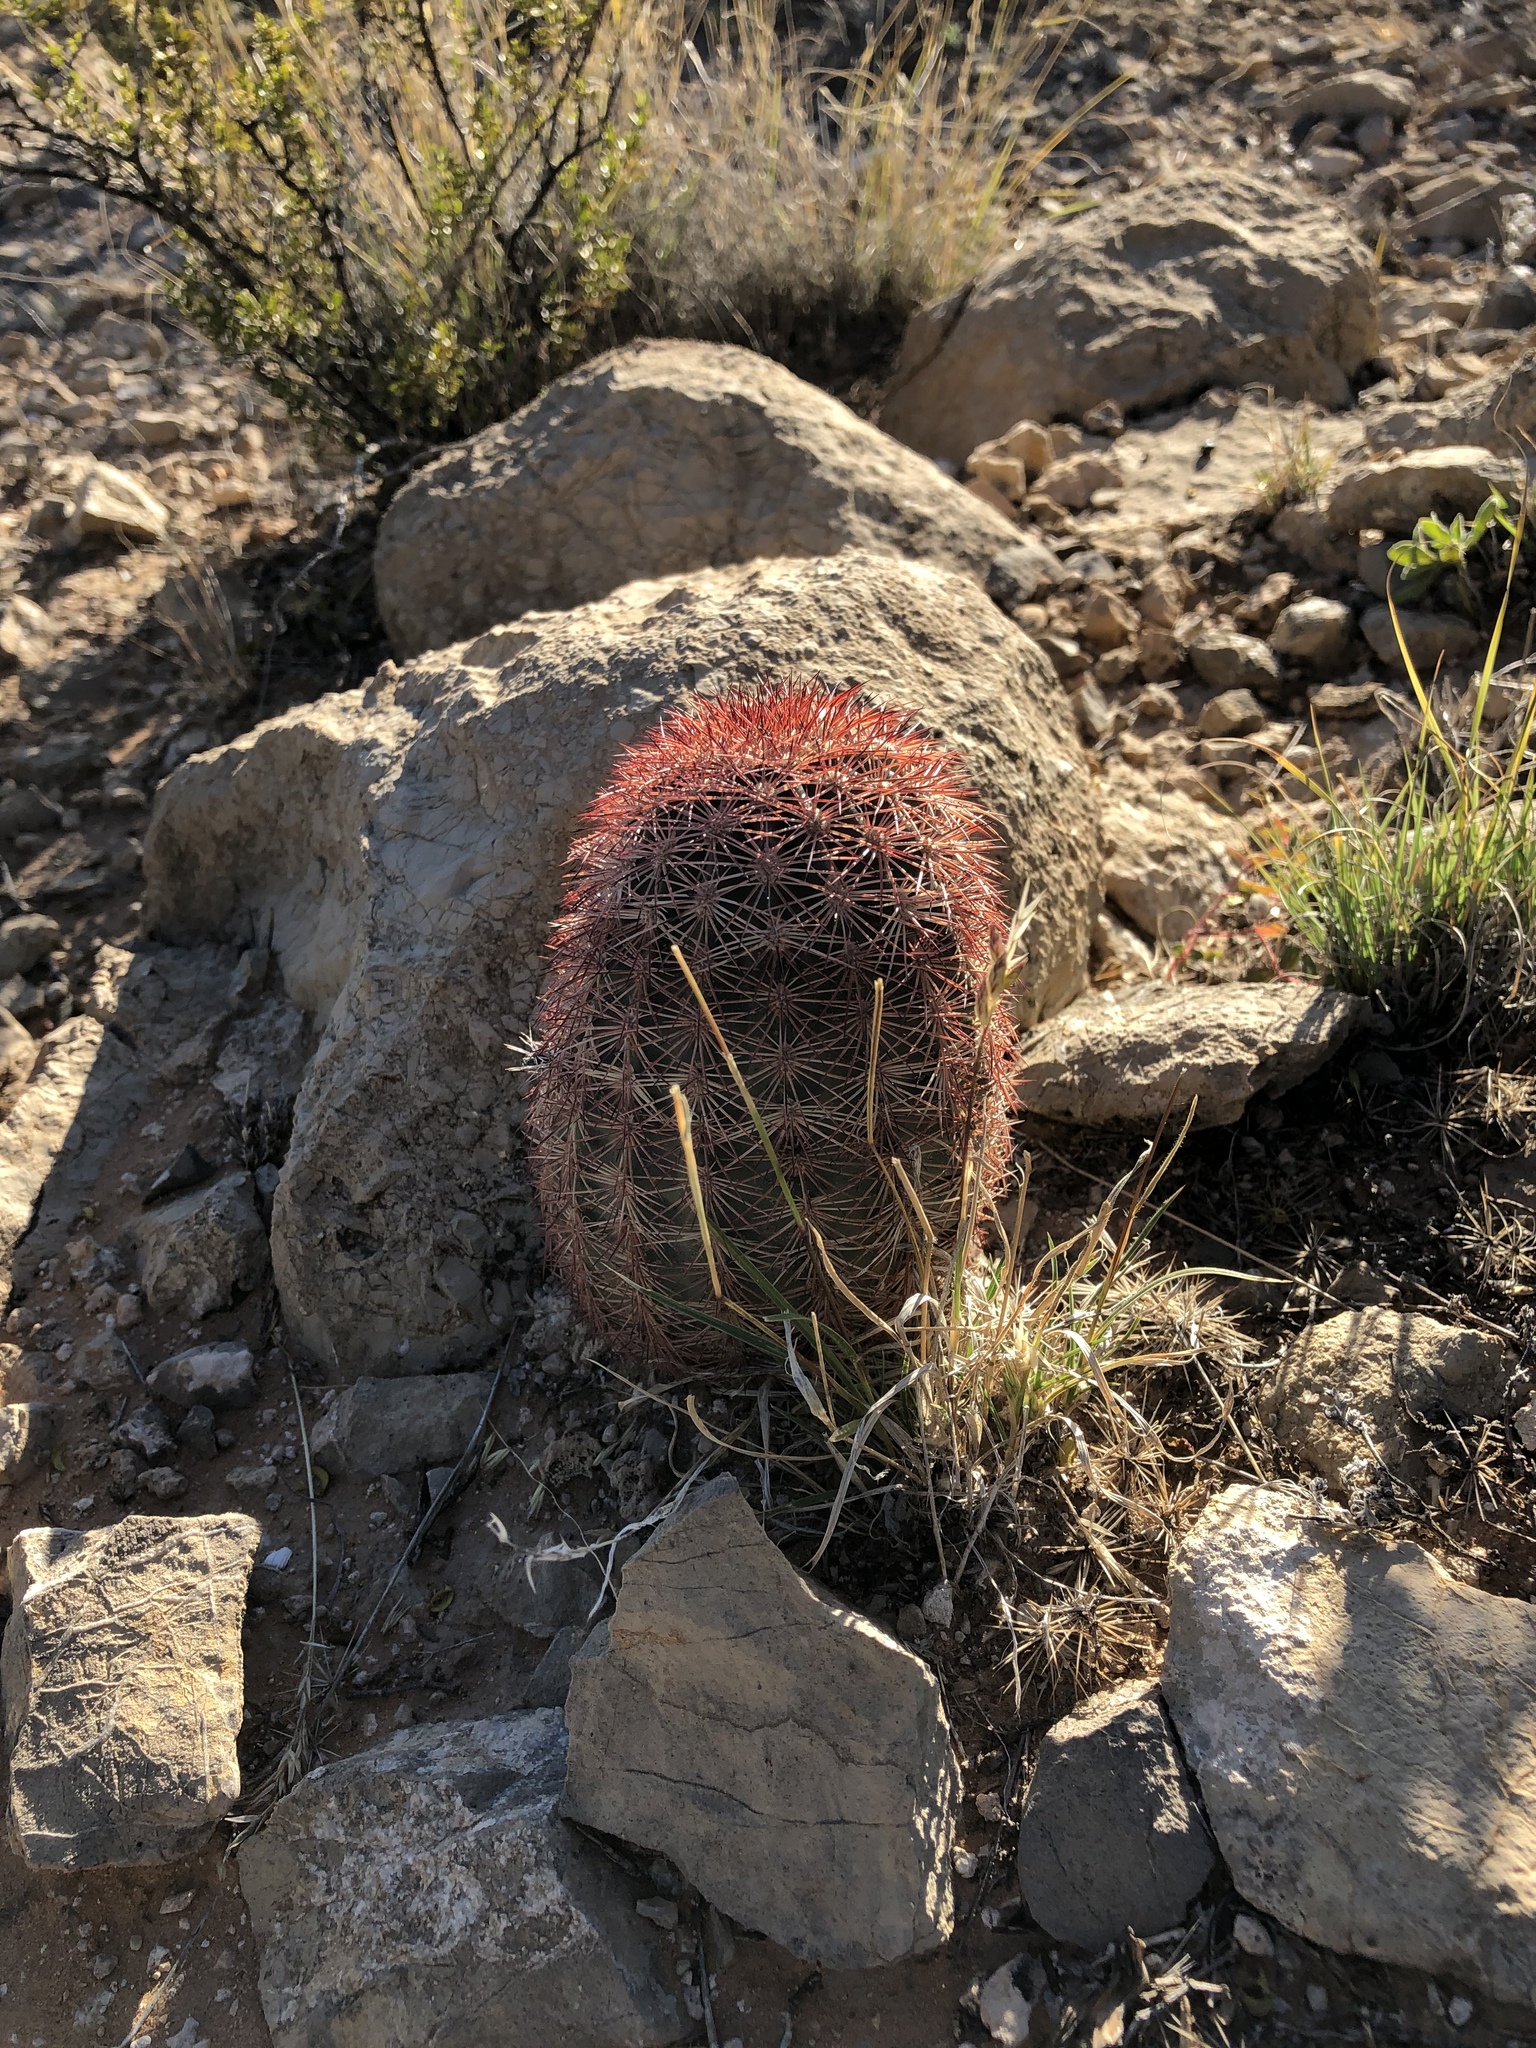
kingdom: Plantae
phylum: Tracheophyta
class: Magnoliopsida
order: Caryophyllales
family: Cactaceae
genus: Echinocereus
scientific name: Echinocereus dasyacanthus
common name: Spiny hedgehog cactus
